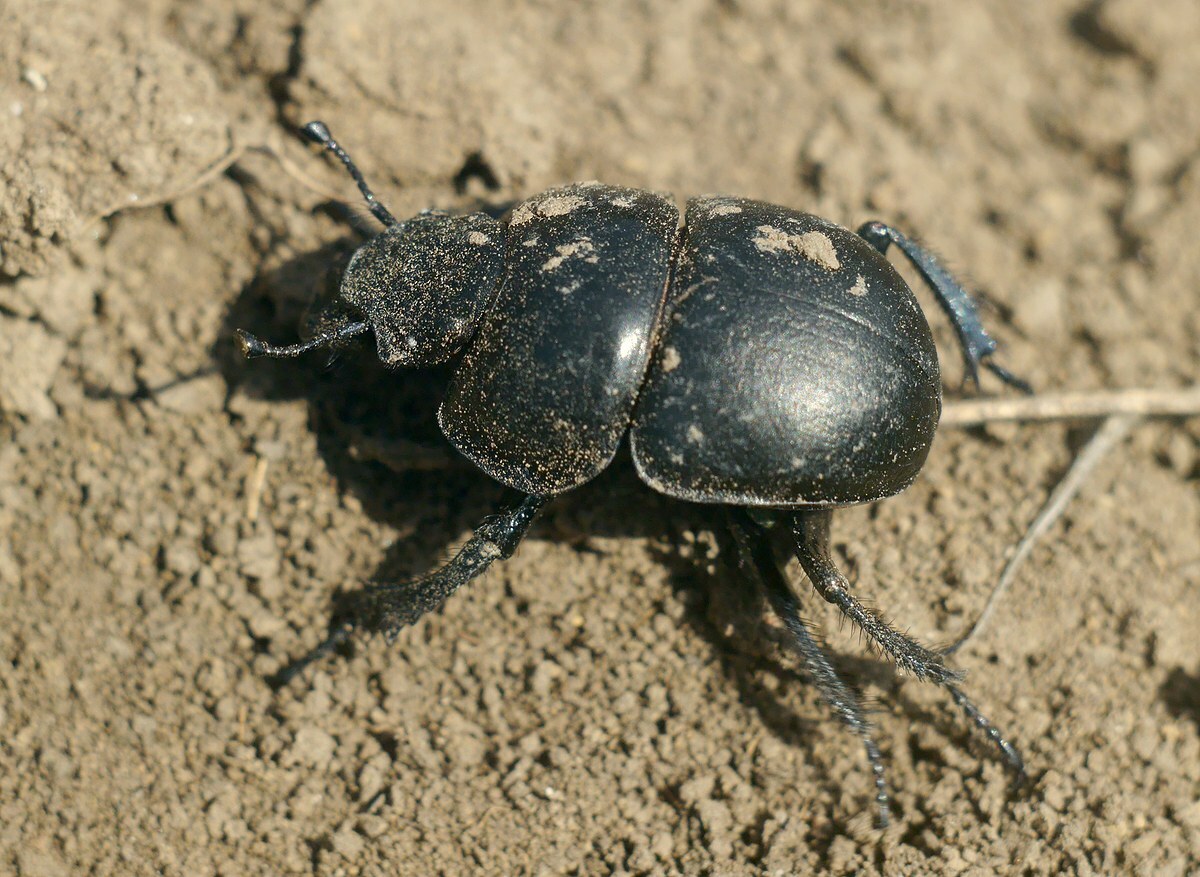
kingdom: Animalia
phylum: Arthropoda
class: Insecta
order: Coleoptera
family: Geotrupidae
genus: Lethrus
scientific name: Lethrus apterus
